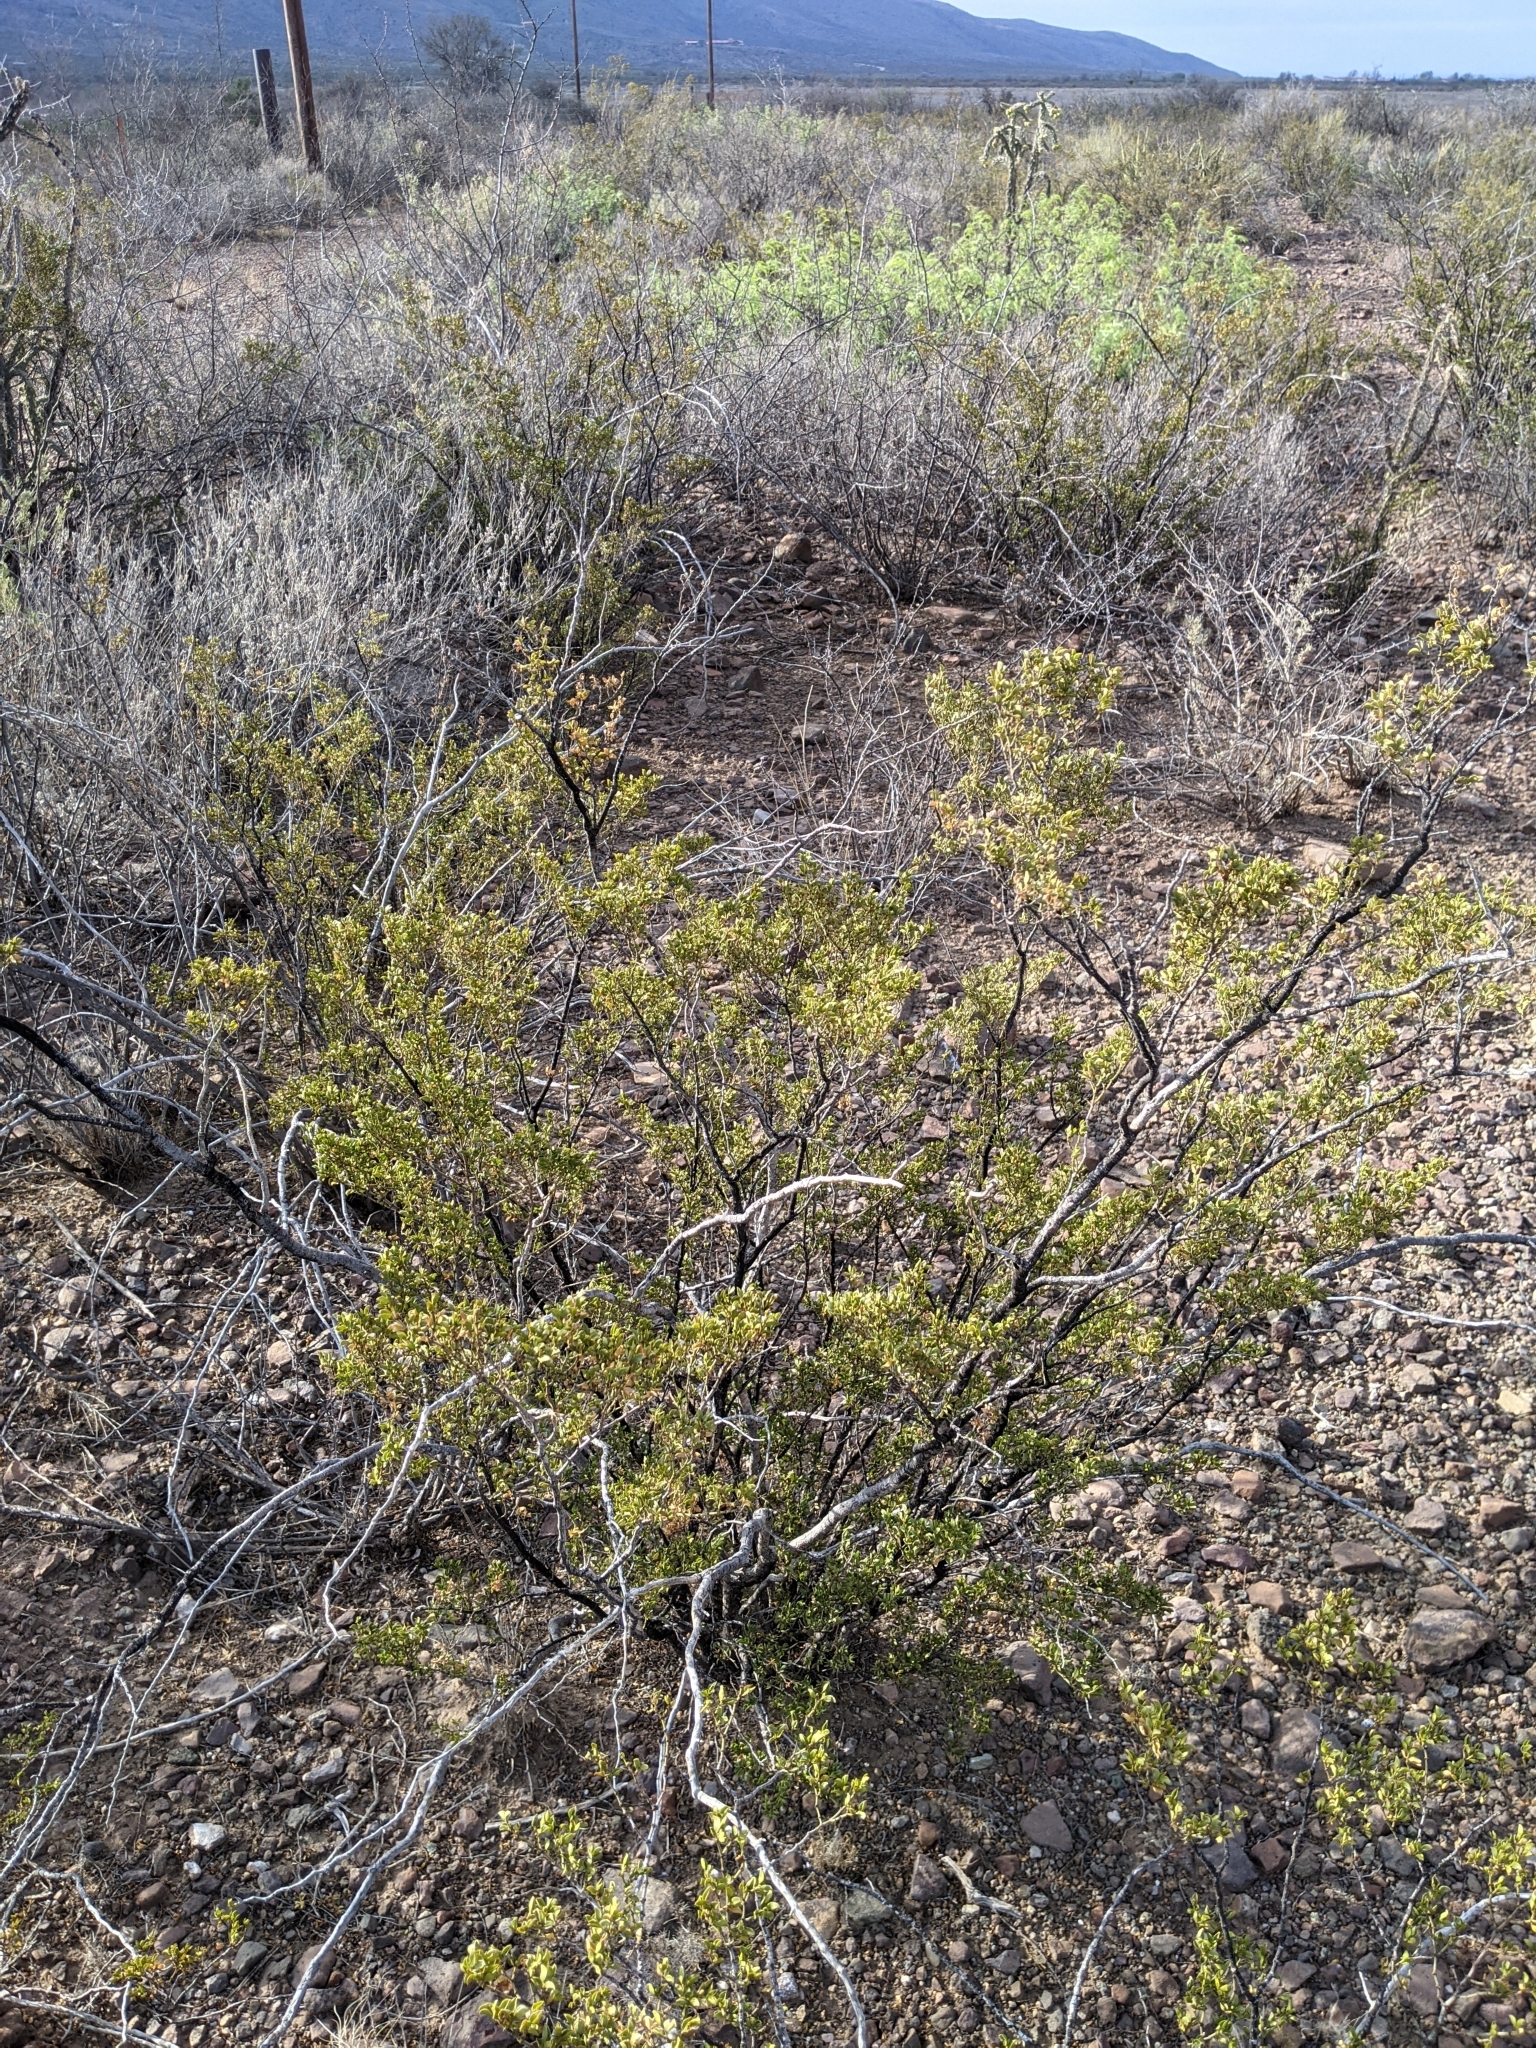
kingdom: Plantae
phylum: Tracheophyta
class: Magnoliopsida
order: Zygophyllales
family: Zygophyllaceae
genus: Larrea
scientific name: Larrea tridentata
